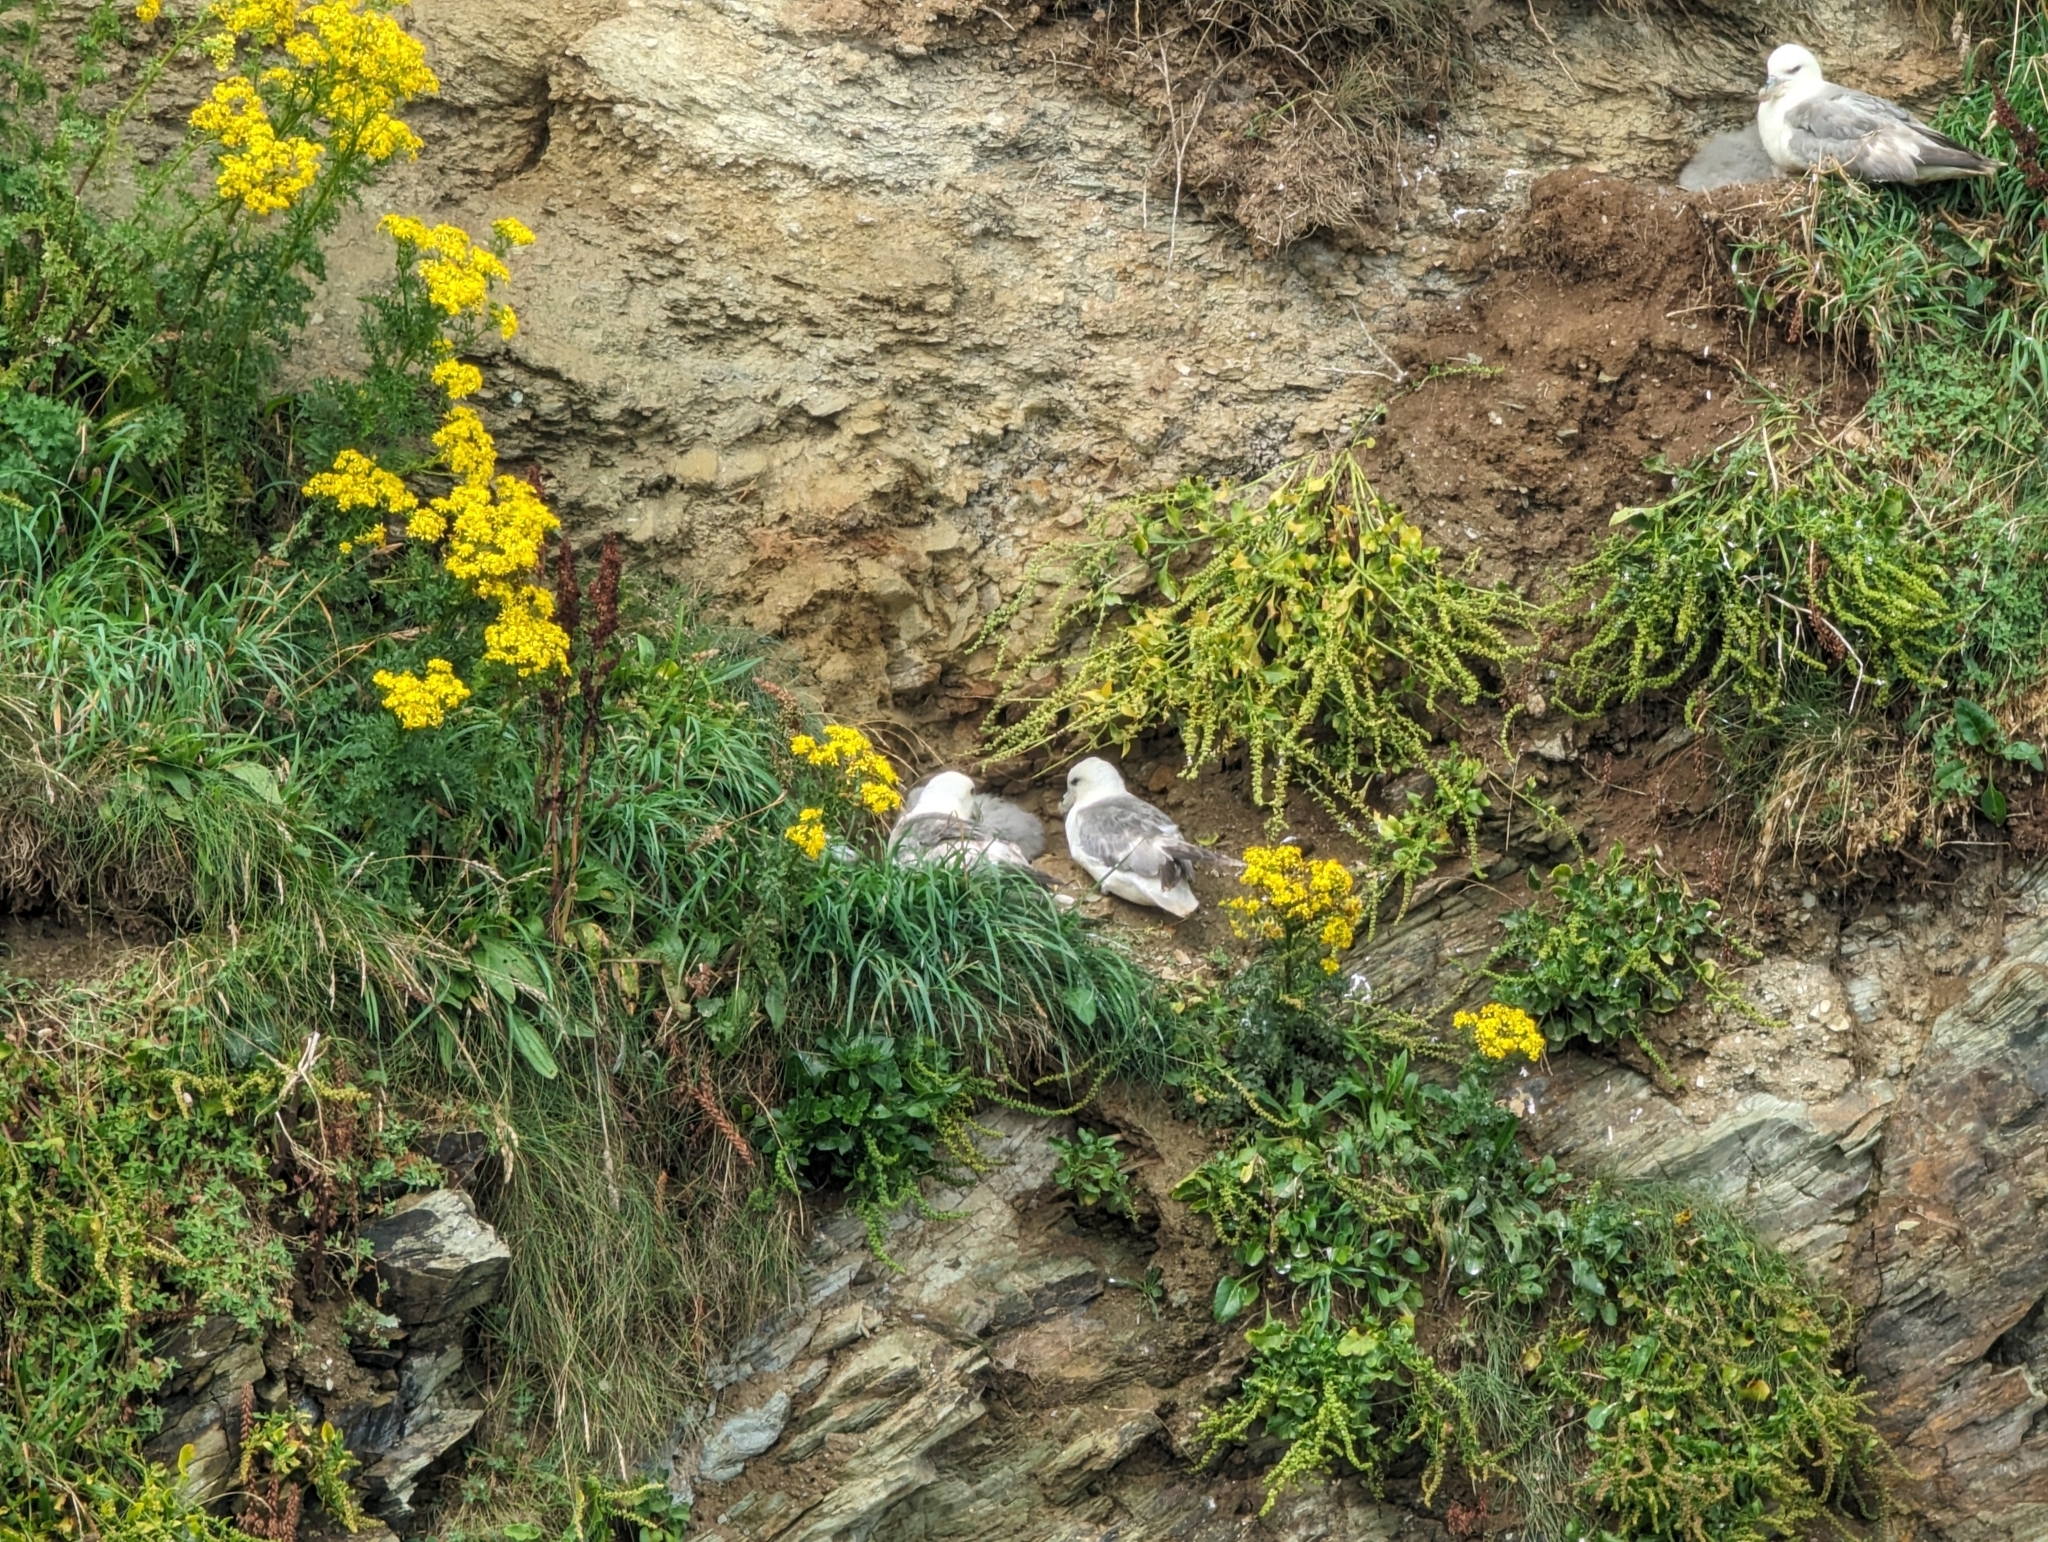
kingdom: Animalia
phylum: Chordata
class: Aves
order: Procellariiformes
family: Procellariidae
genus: Fulmarus
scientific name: Fulmarus glacialis
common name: Northern fulmar
